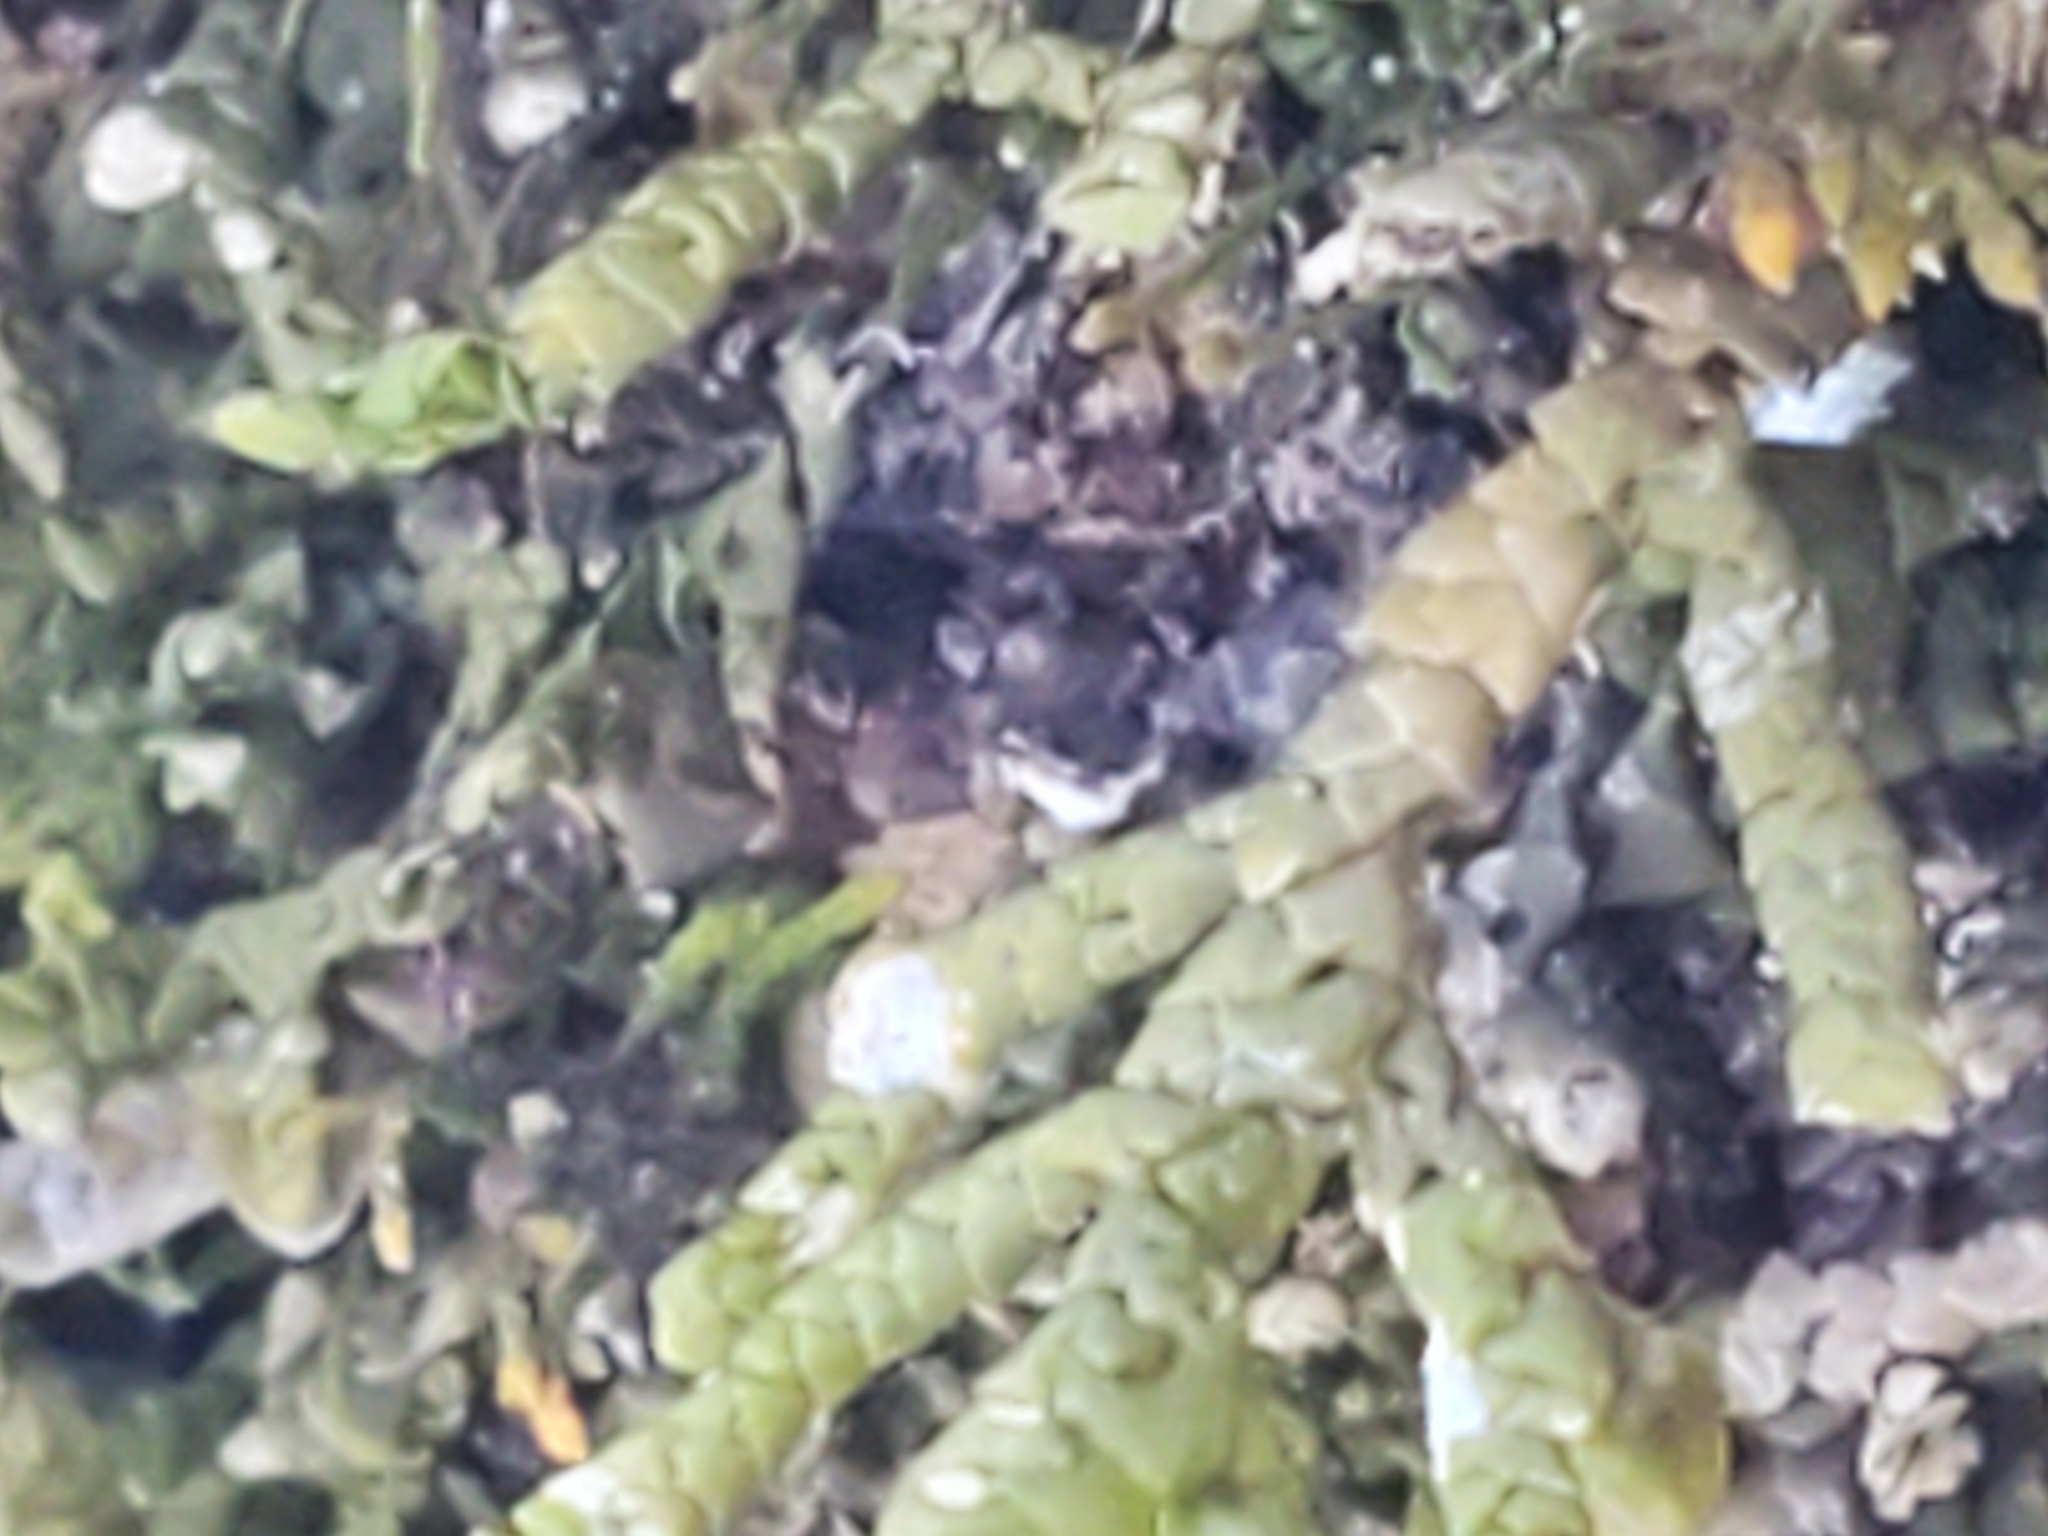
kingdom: Plantae
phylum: Marchantiophyta
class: Jungermanniopsida
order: Porellales
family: Porellaceae
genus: Porella
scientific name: Porella platyphylla
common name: Wall scalewort
